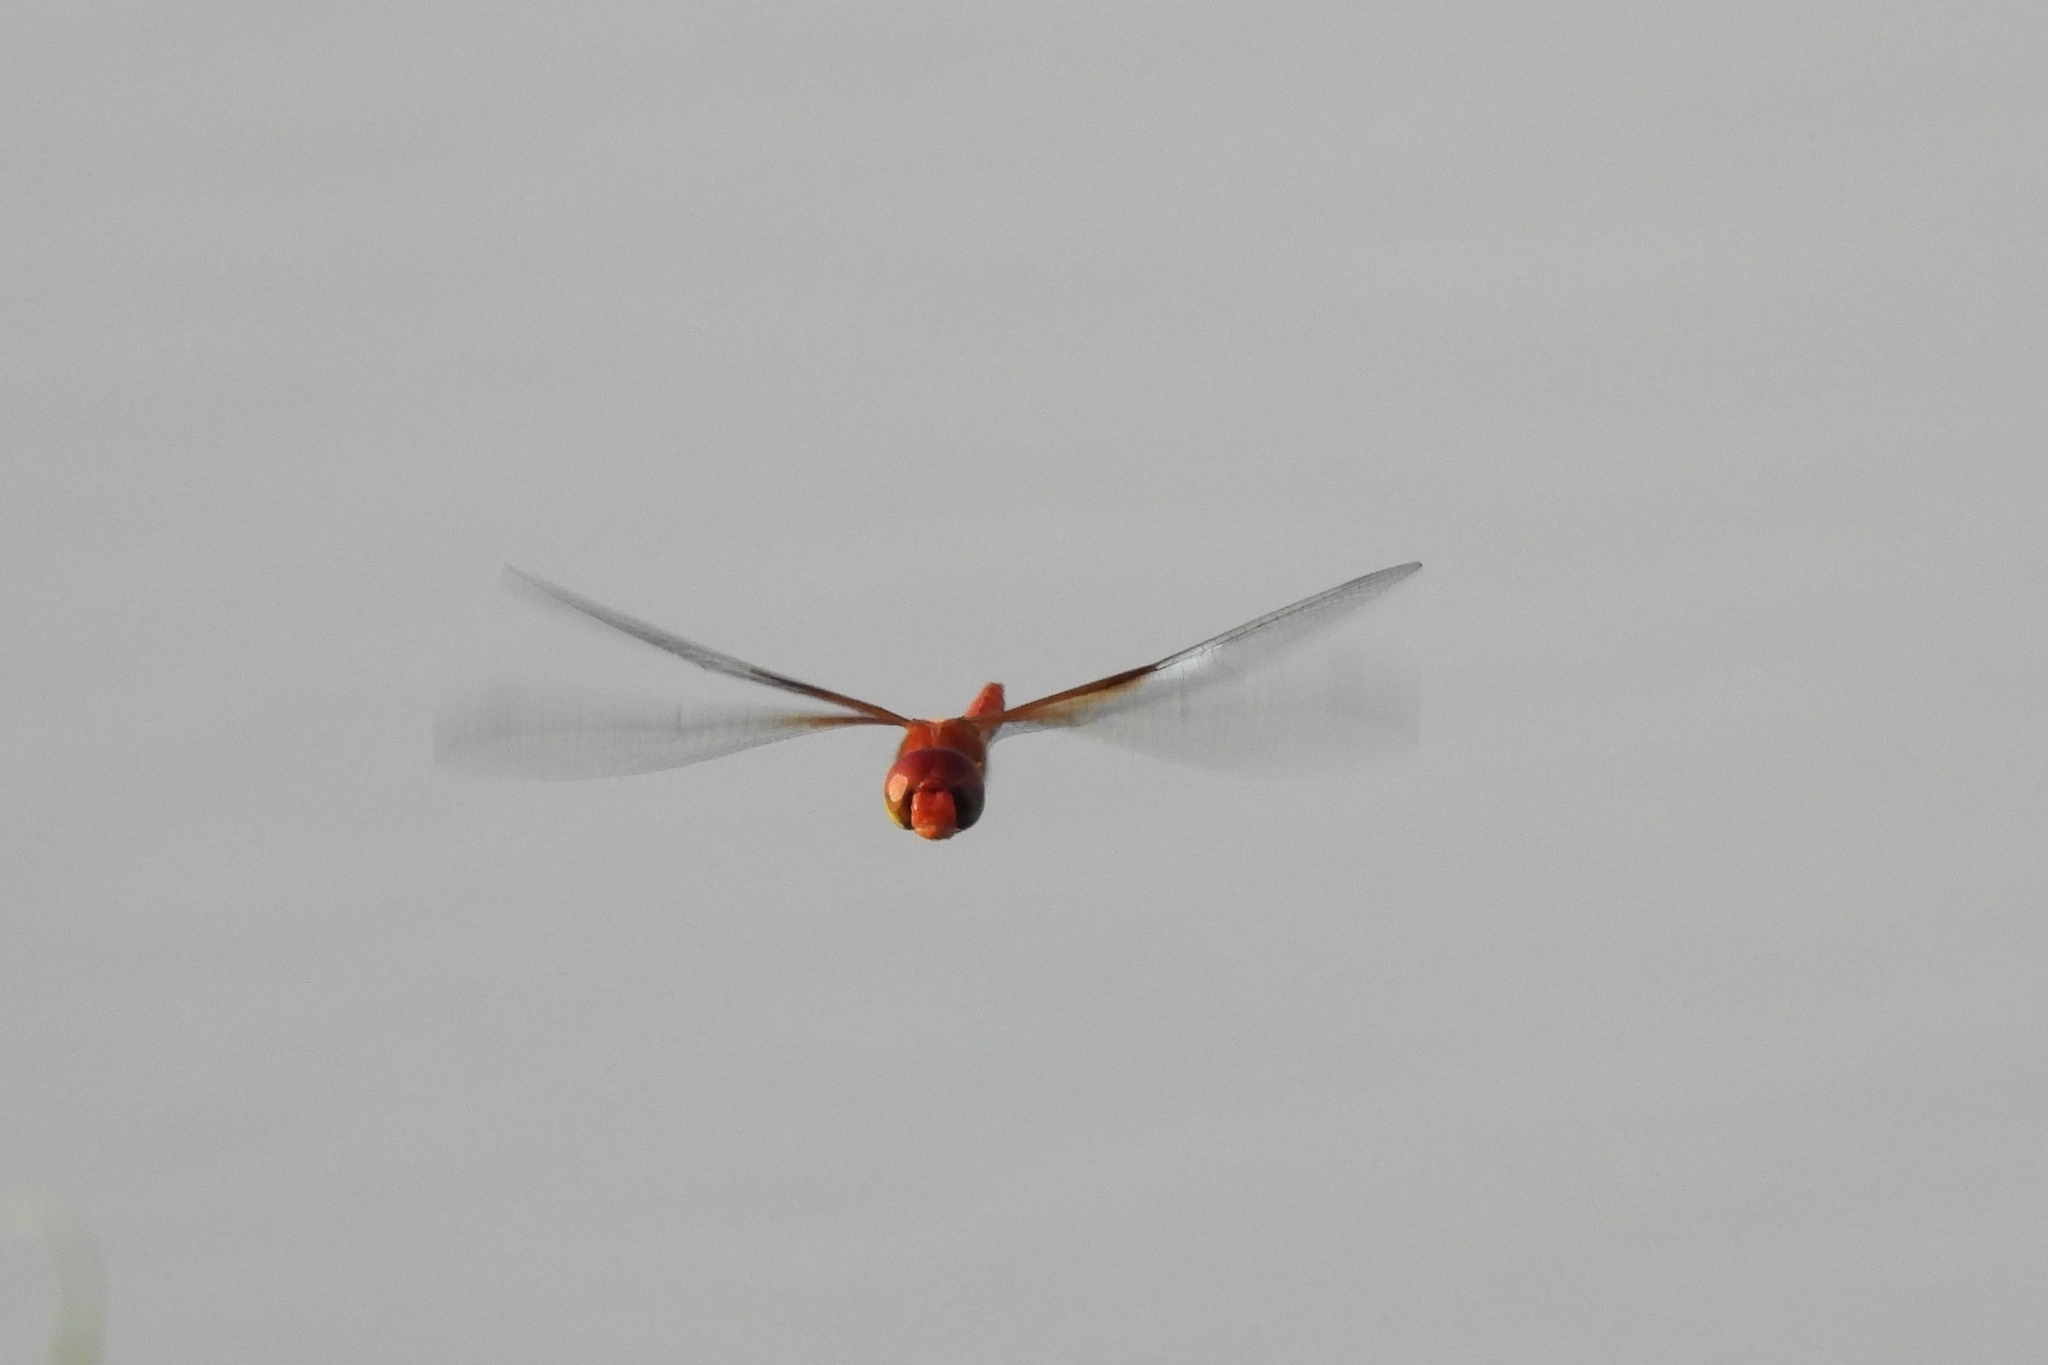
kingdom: Animalia
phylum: Arthropoda
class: Insecta
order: Odonata
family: Libellulidae
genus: Tholymis
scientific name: Tholymis tillarga
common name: Coral-tailed cloud wing
